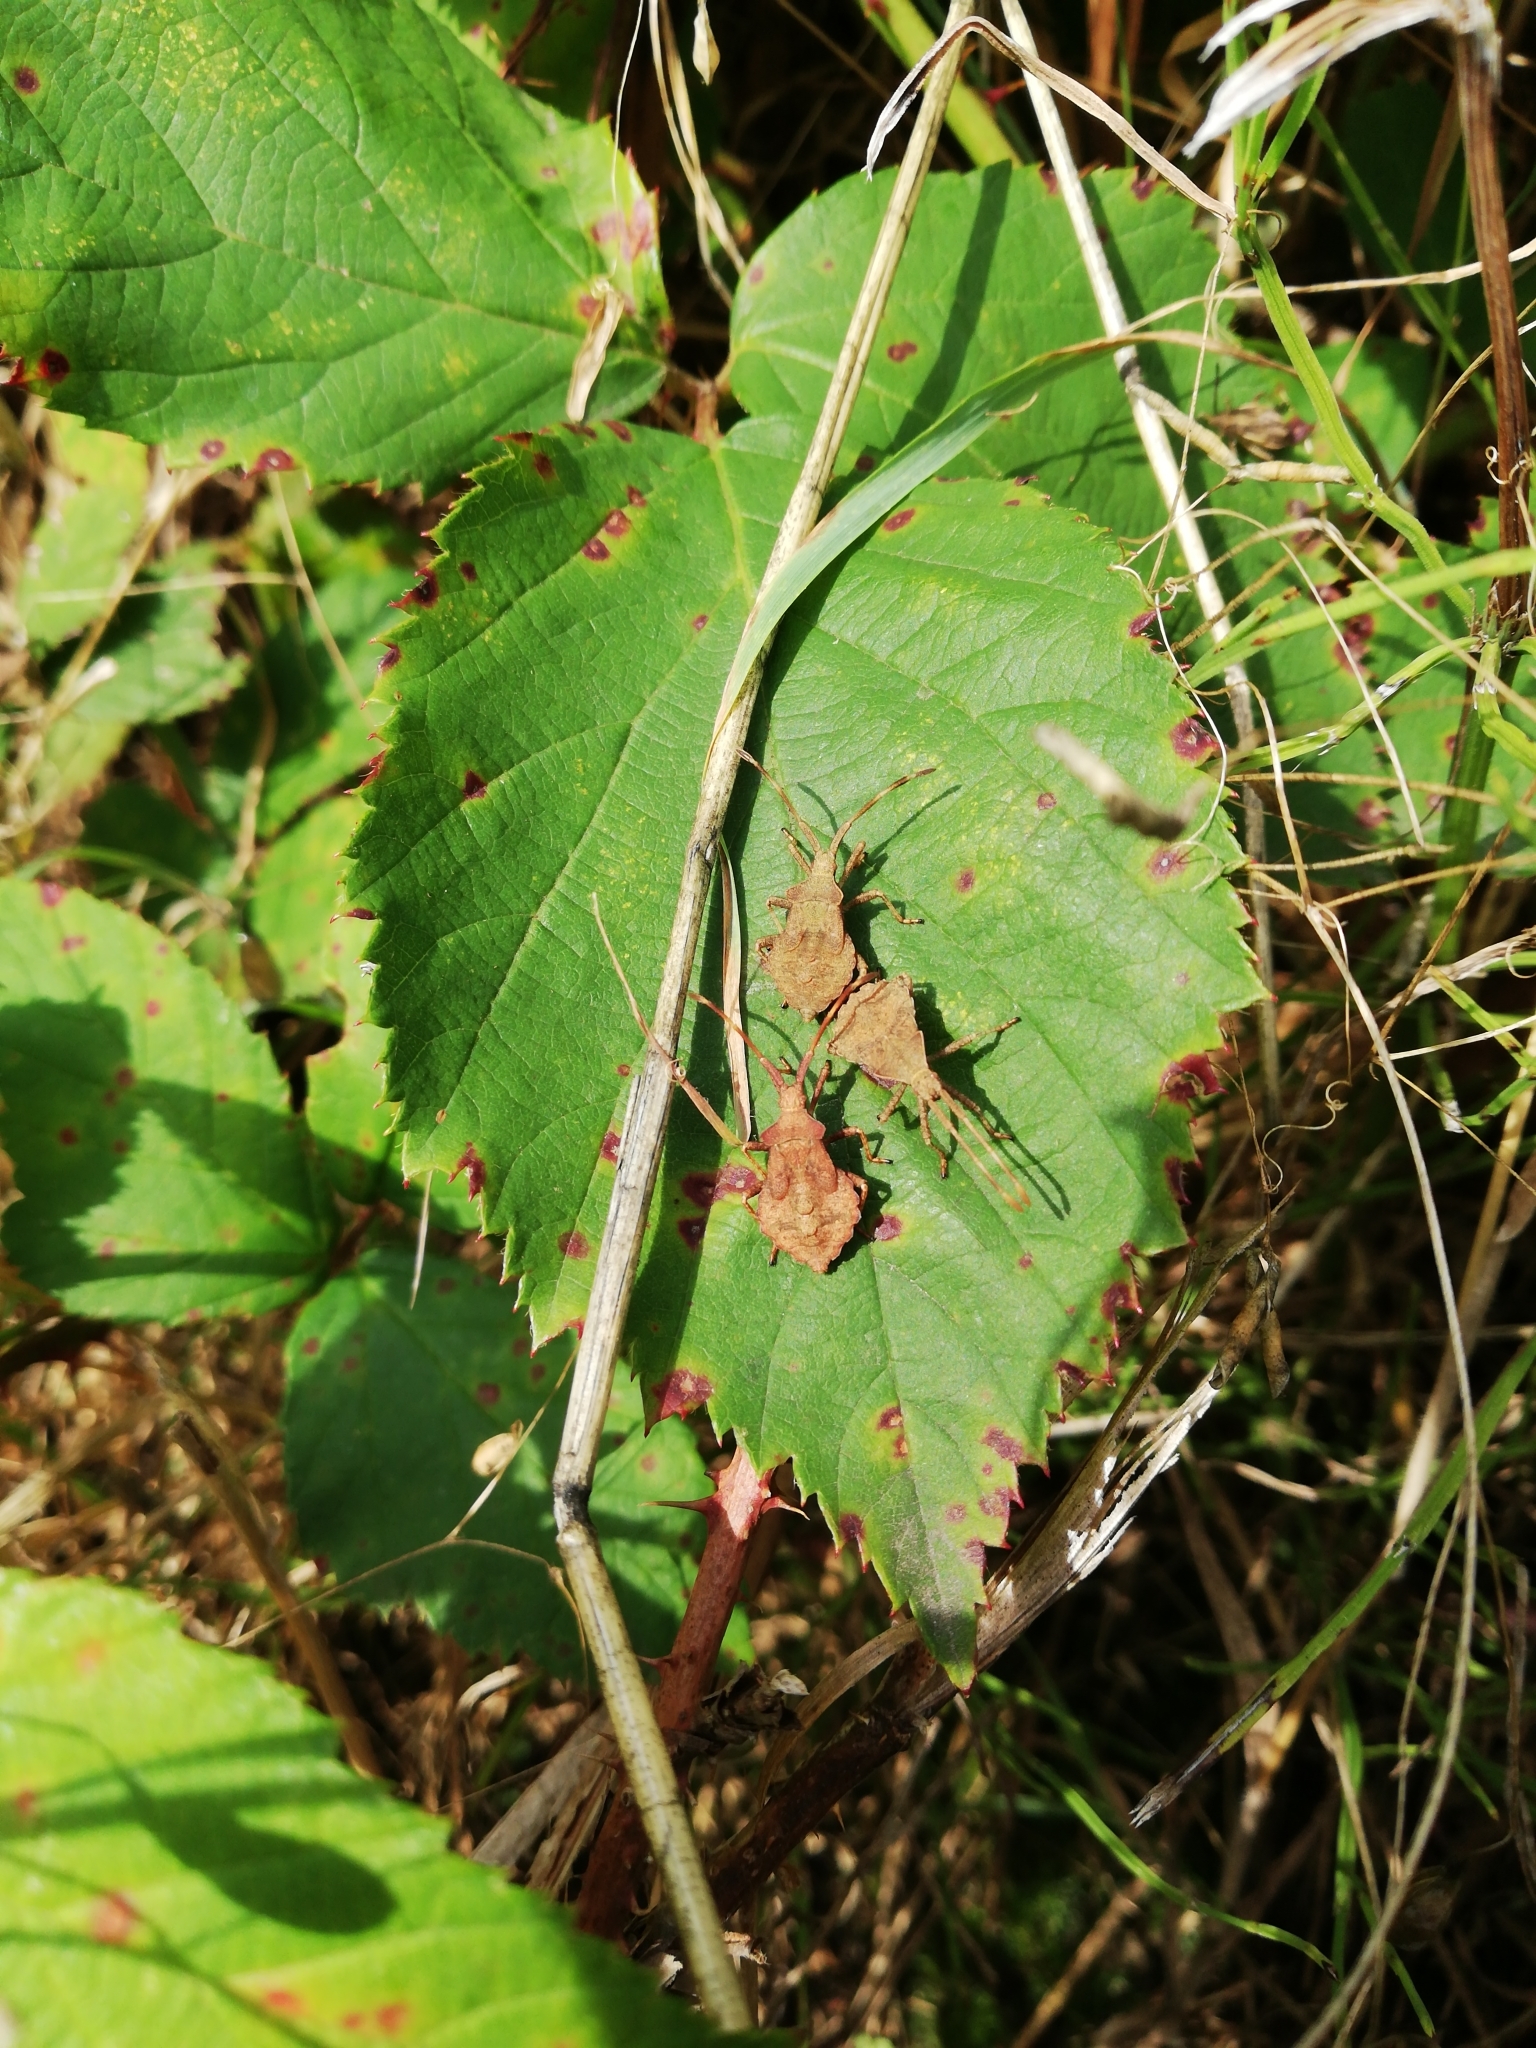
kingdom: Animalia
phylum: Arthropoda
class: Insecta
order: Hemiptera
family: Coreidae
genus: Coreus
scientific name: Coreus marginatus
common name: Dock bug
